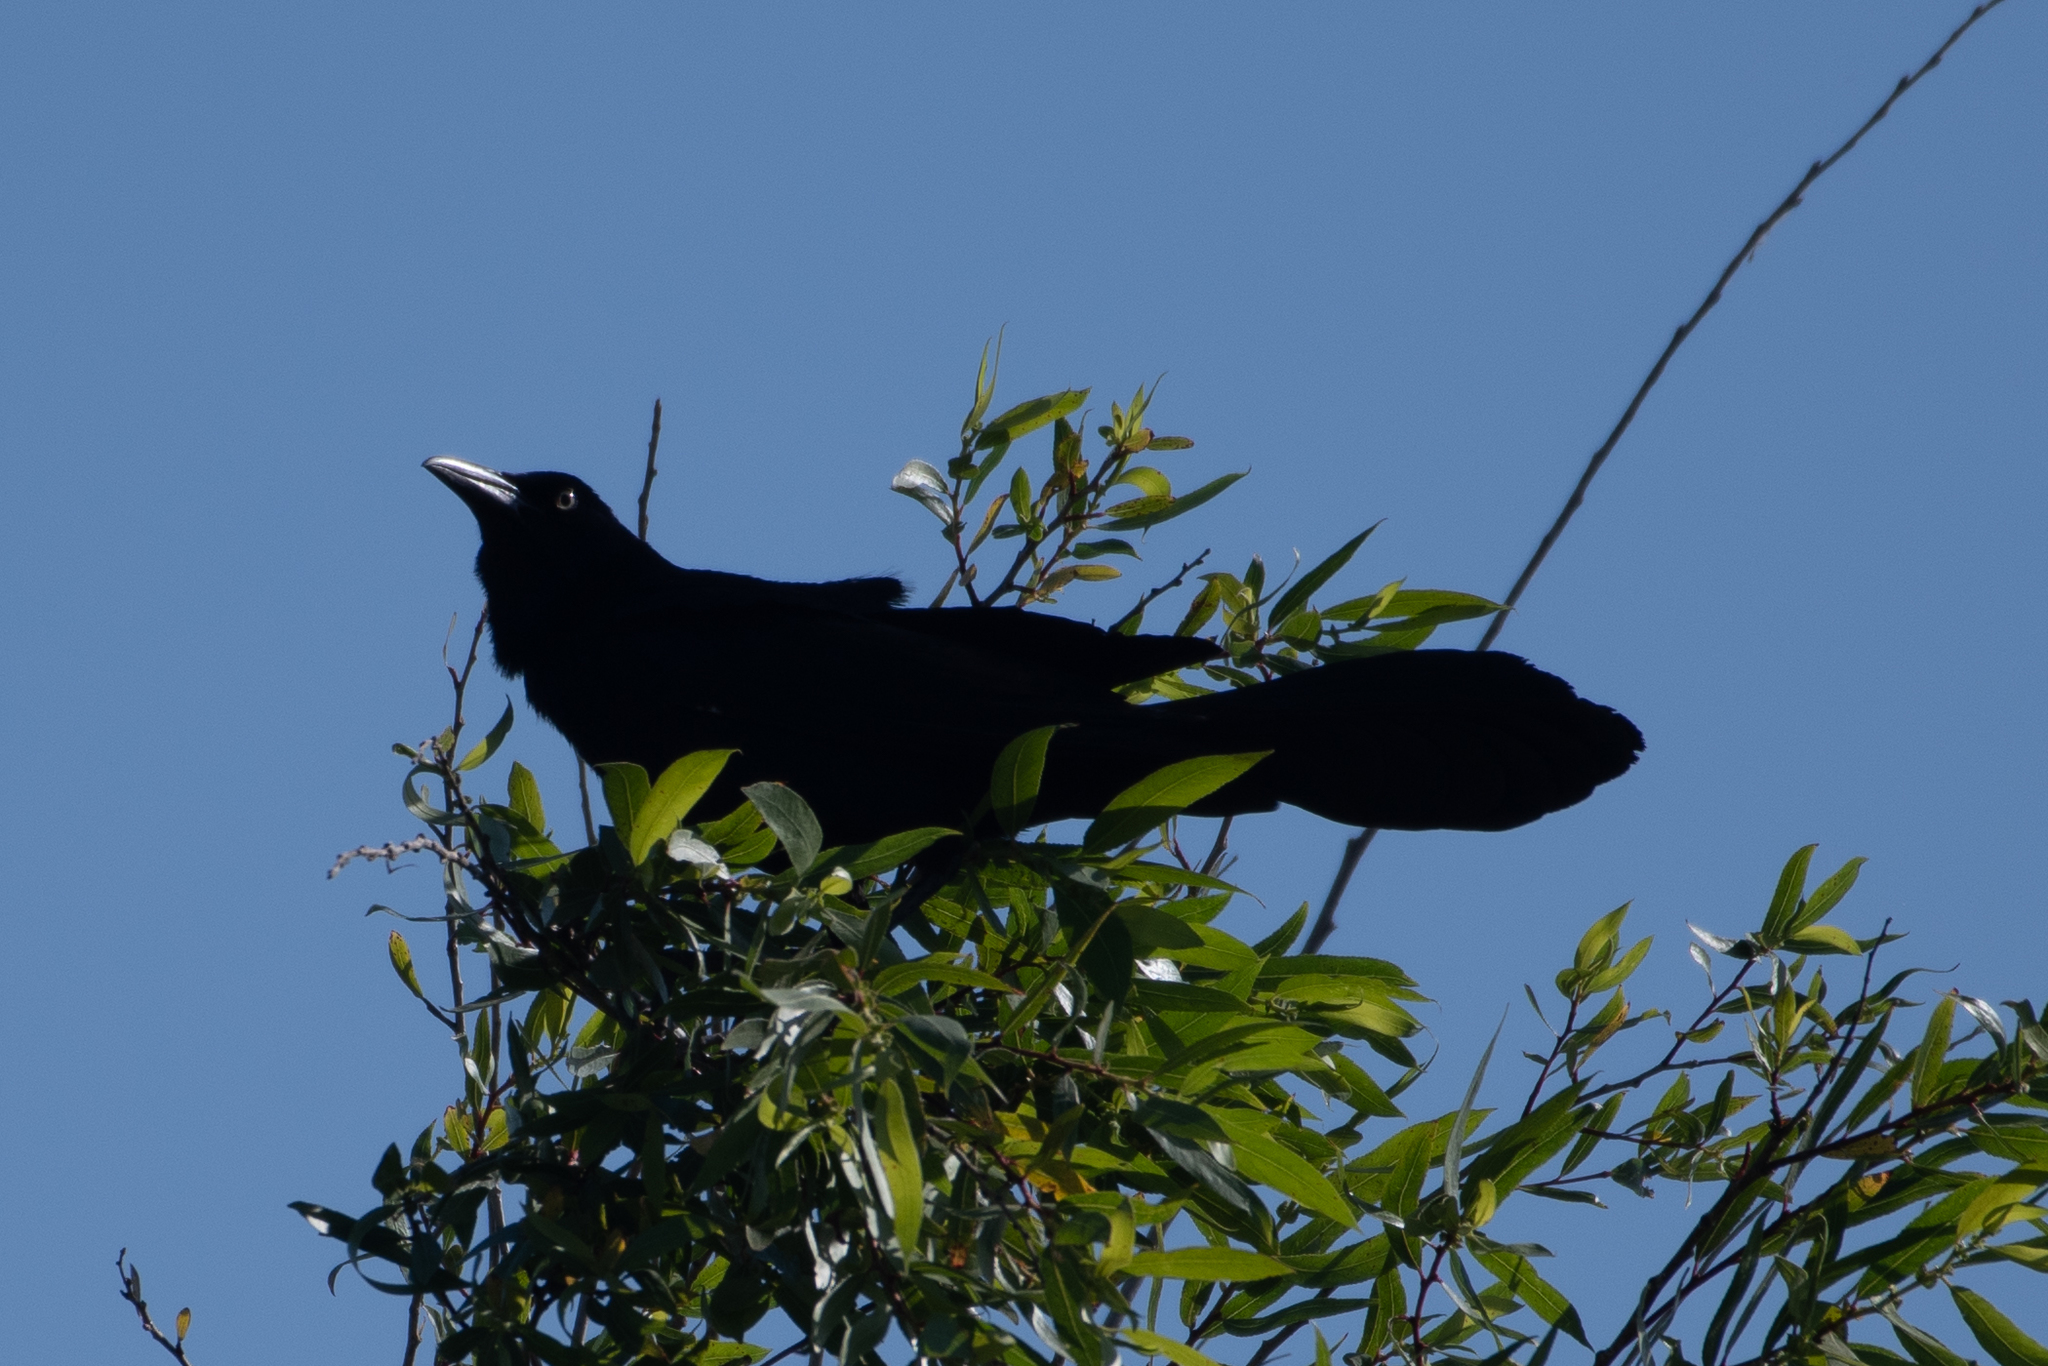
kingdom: Animalia
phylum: Chordata
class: Aves
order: Passeriformes
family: Icteridae
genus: Quiscalus
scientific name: Quiscalus mexicanus
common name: Great-tailed grackle
